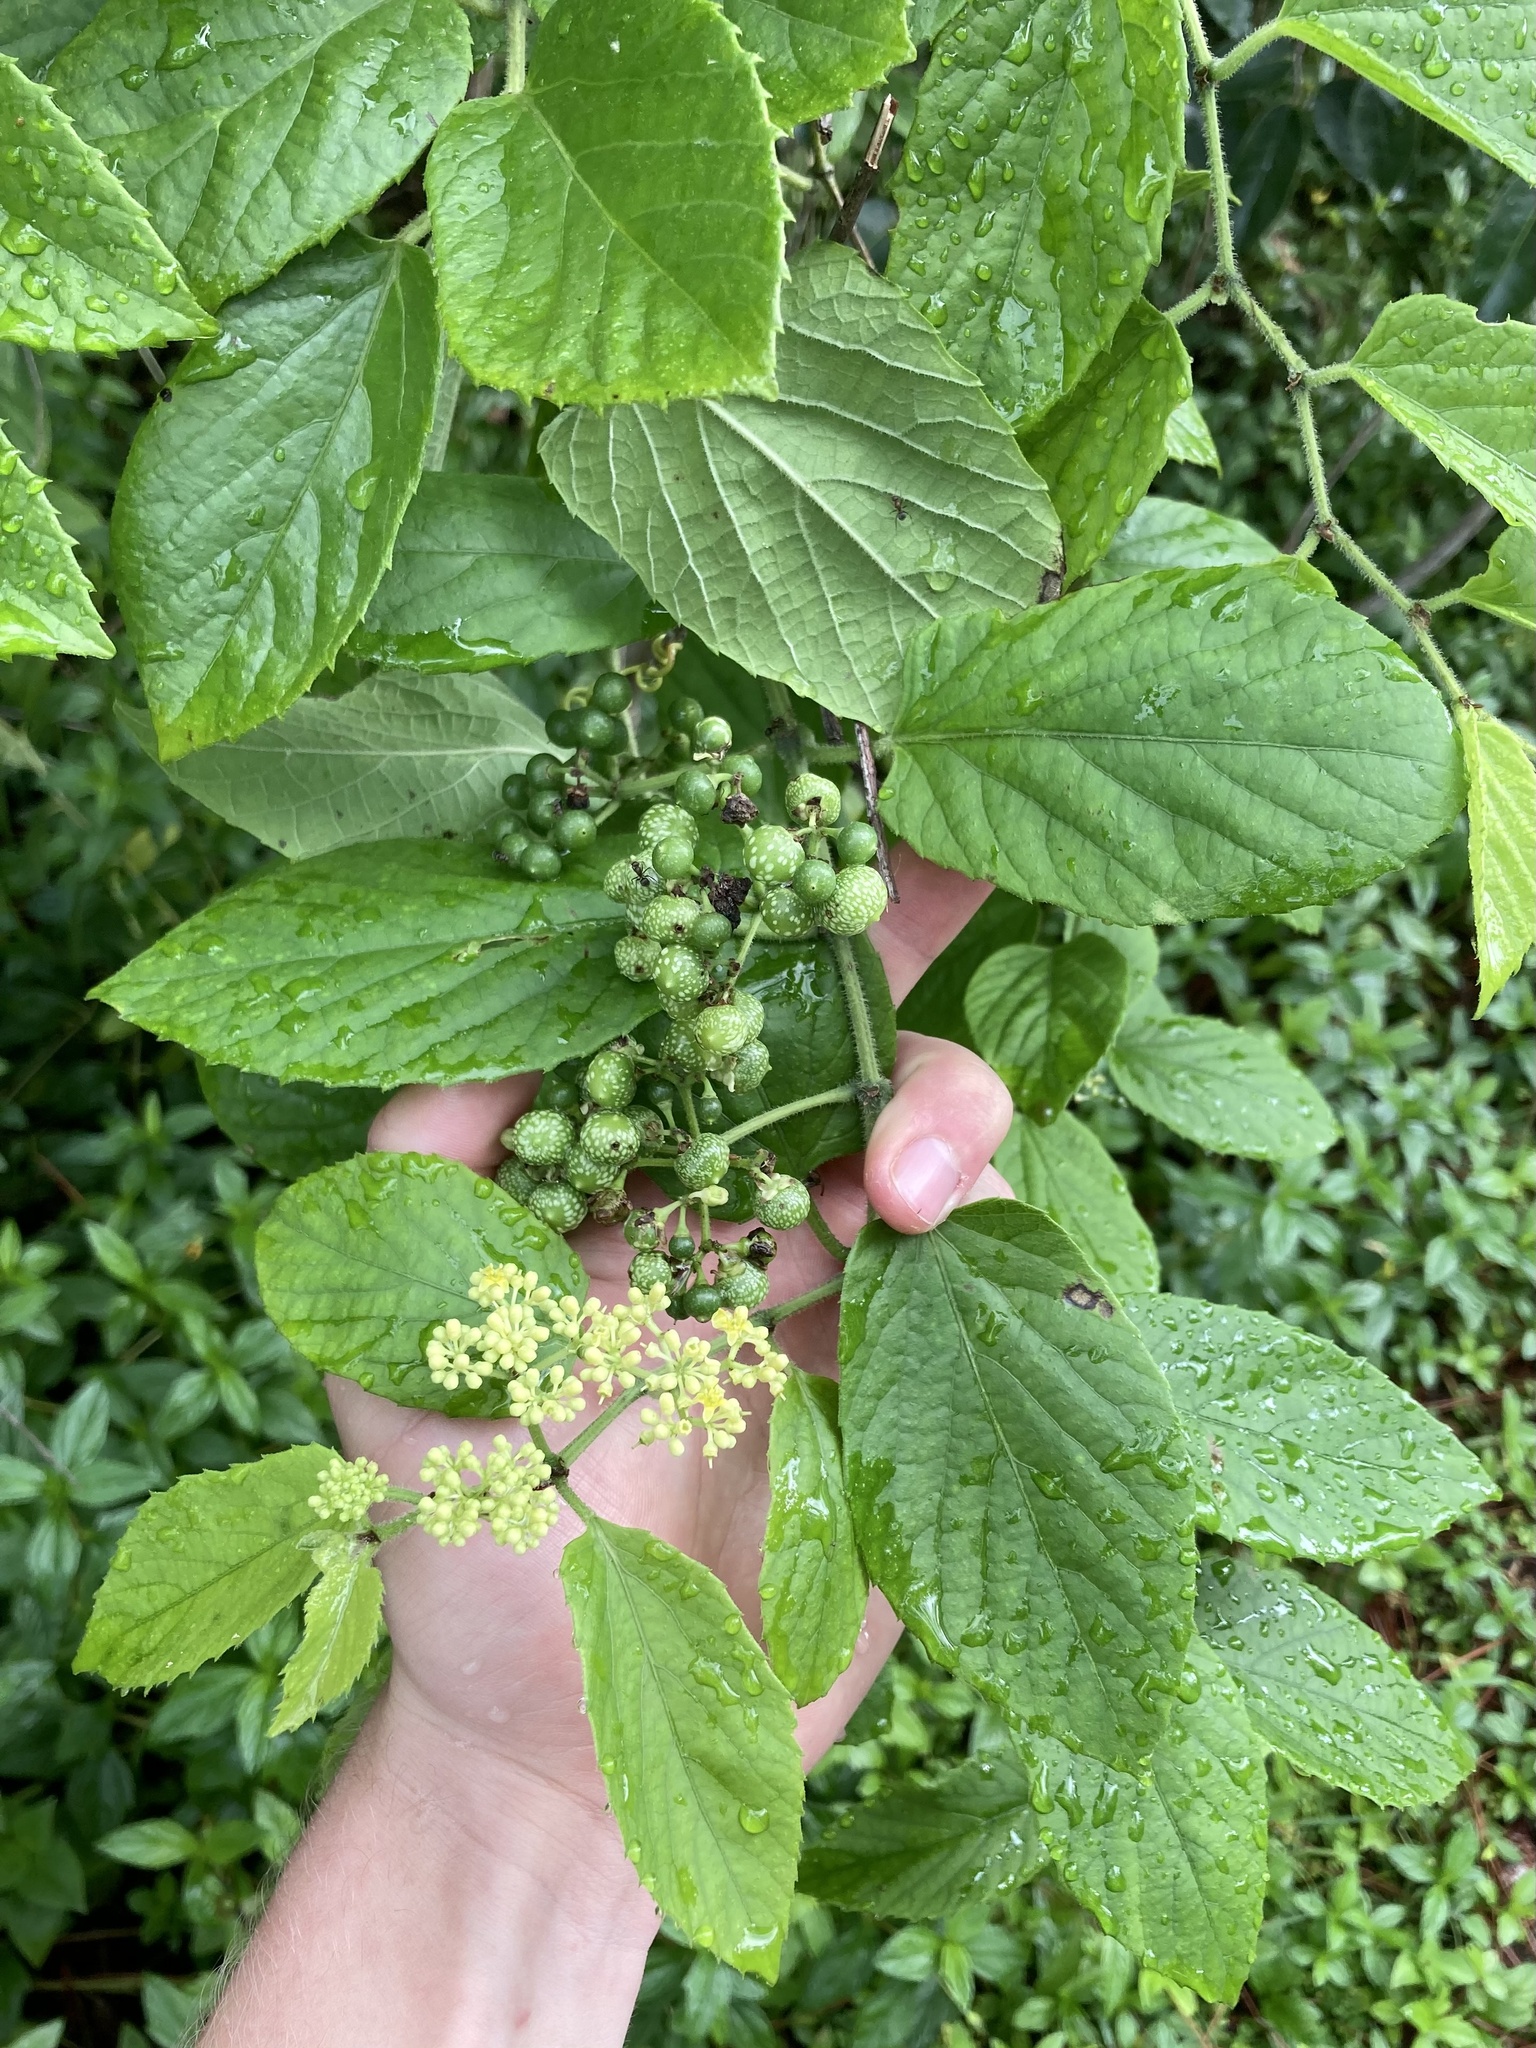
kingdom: Plantae
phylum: Tracheophyta
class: Magnoliopsida
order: Vitales
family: Vitaceae
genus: Cissus
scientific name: Cissus verticillata
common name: Princess vine
